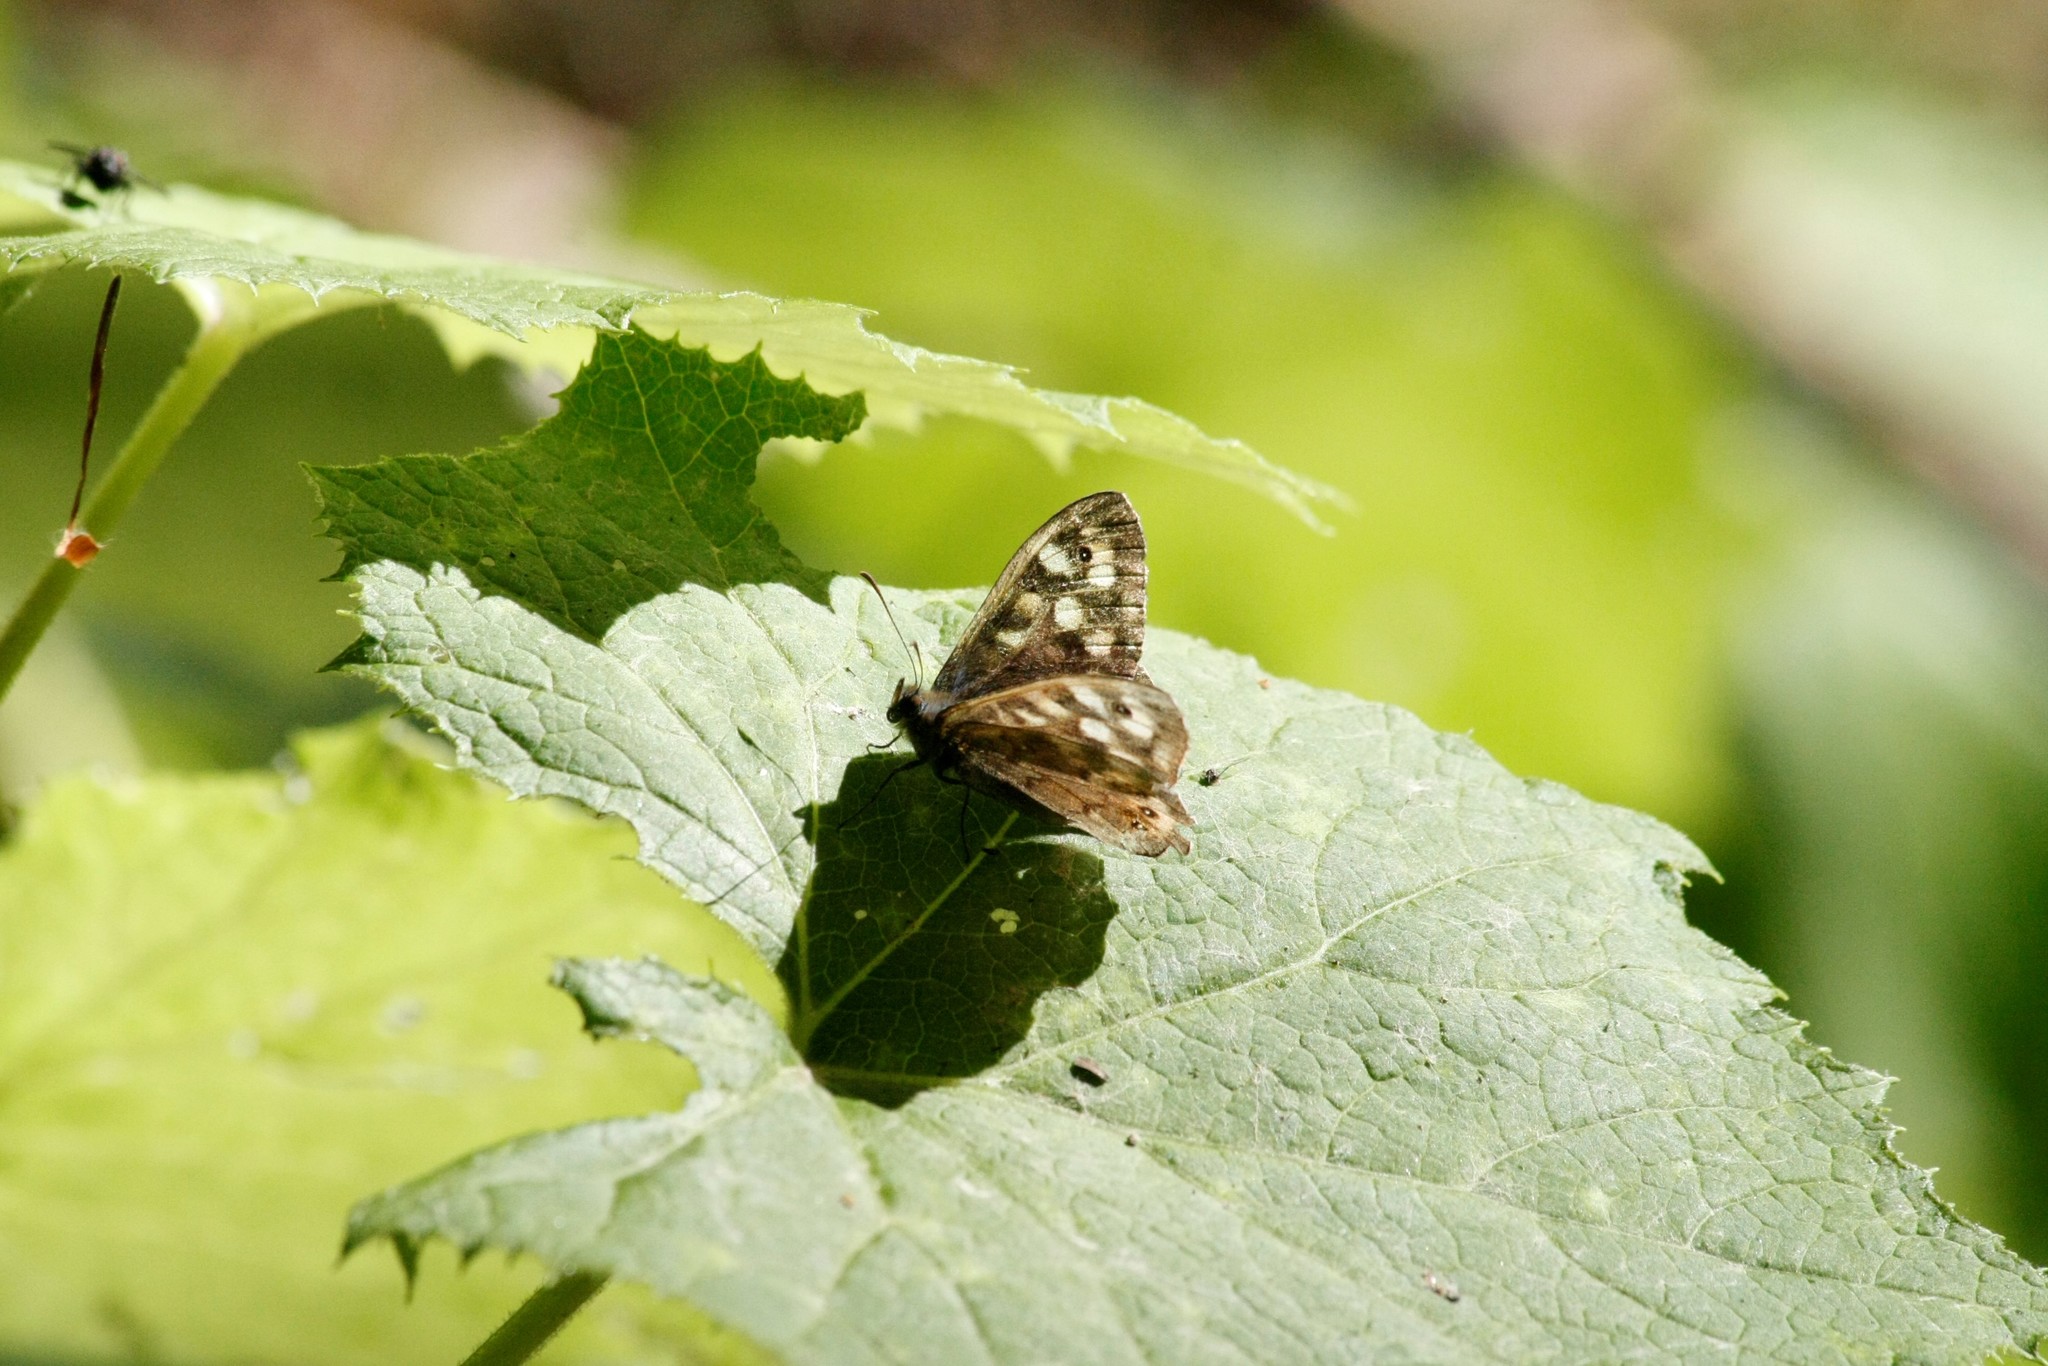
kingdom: Animalia
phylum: Arthropoda
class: Insecta
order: Lepidoptera
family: Nymphalidae
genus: Pararge
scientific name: Pararge aegeria
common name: Speckled wood
